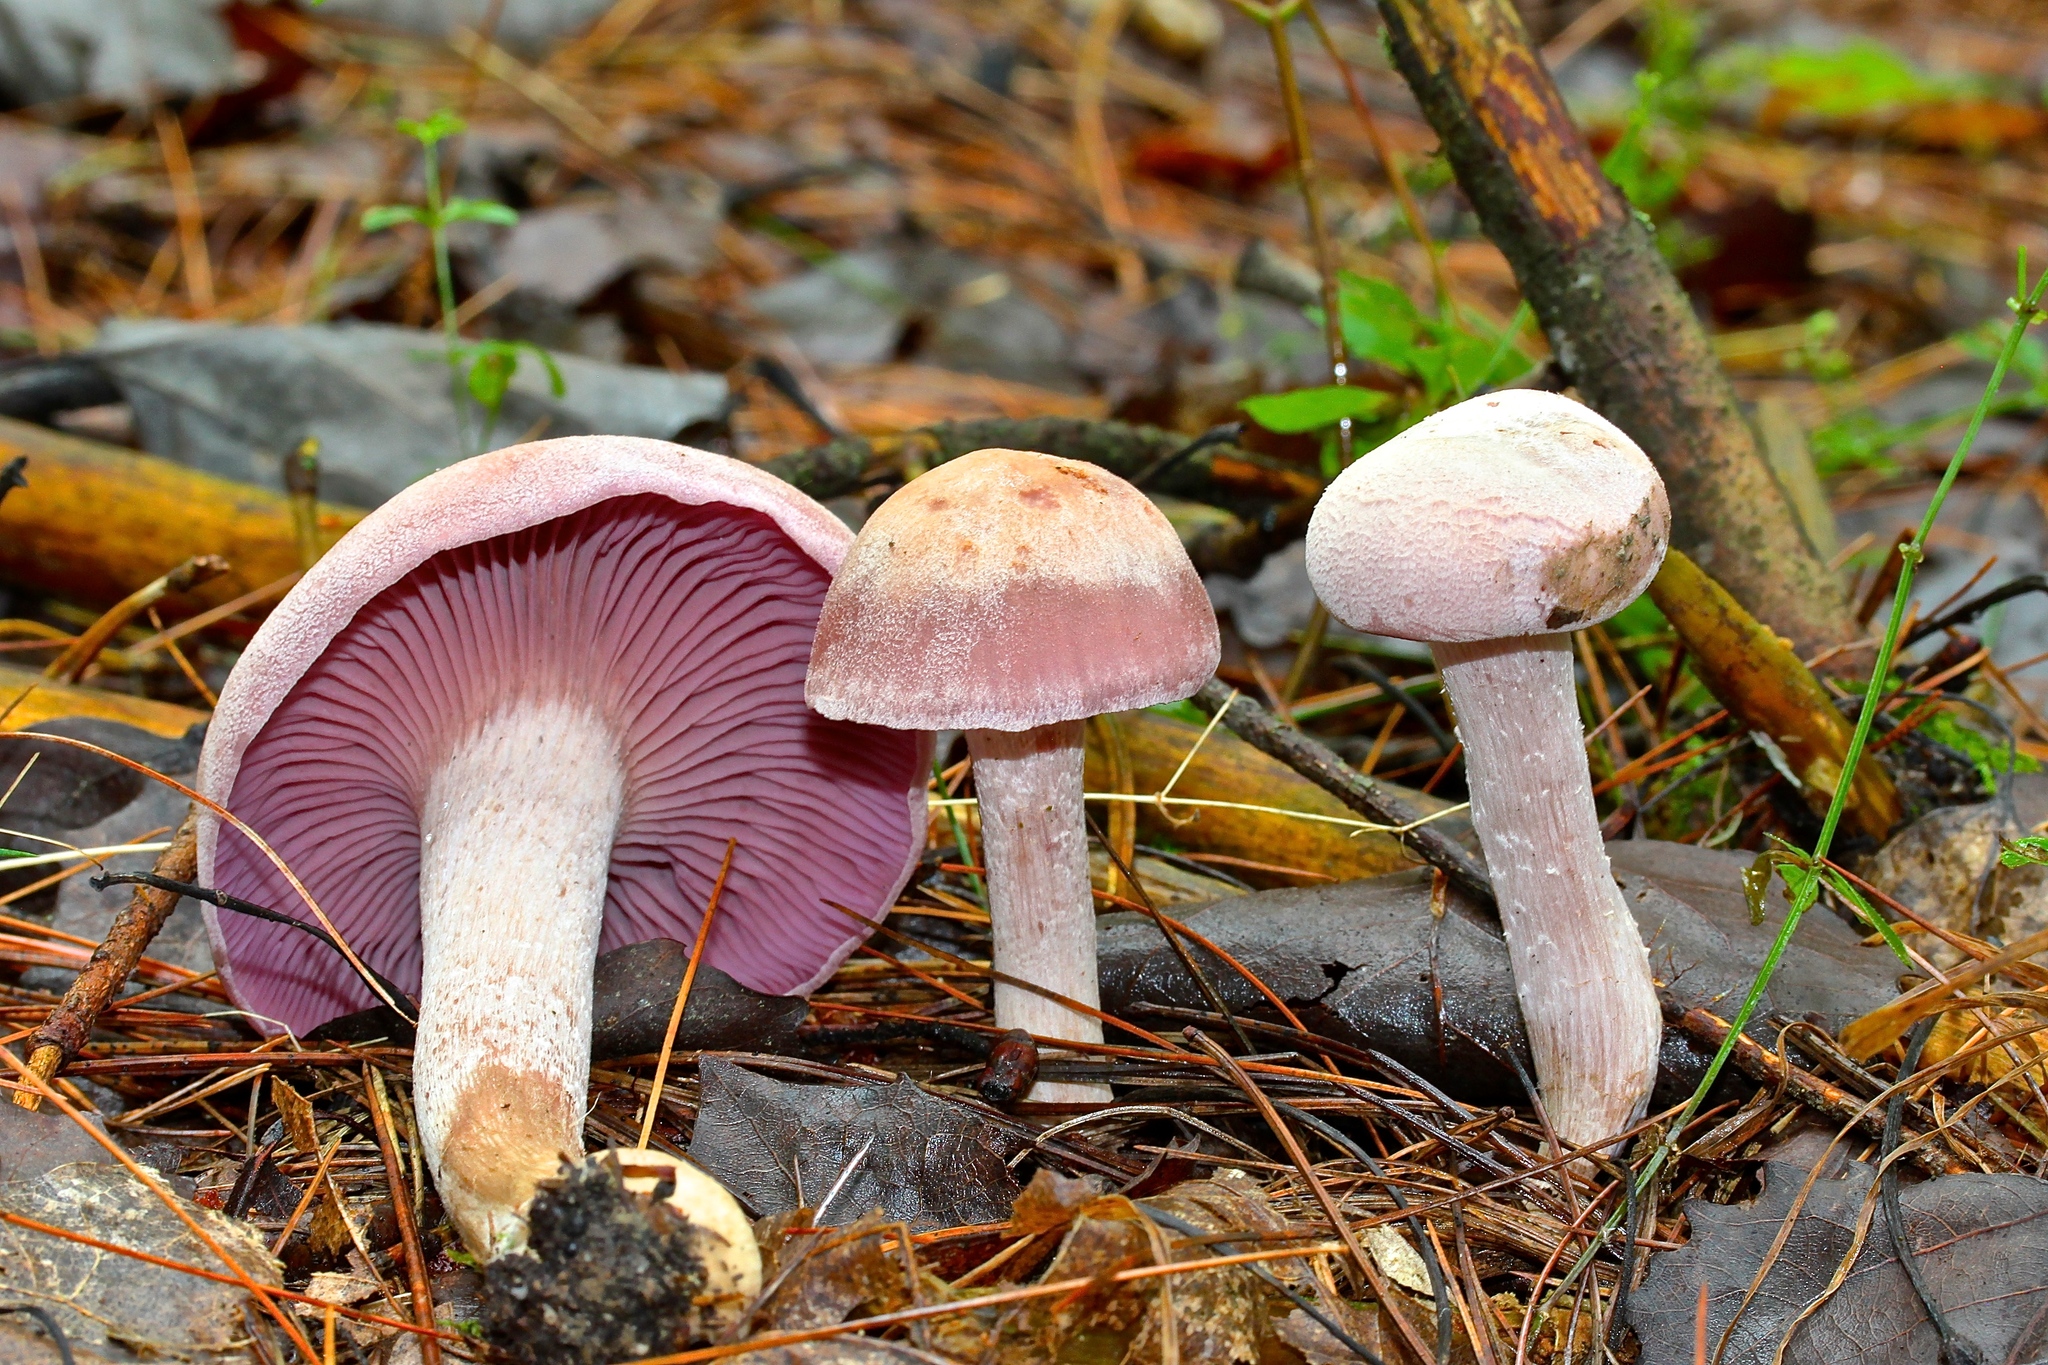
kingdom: Fungi
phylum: Basidiomycota
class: Agaricomycetes
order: Agaricales
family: Hydnangiaceae
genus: Laccaria
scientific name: Laccaria ochropurpurea
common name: Purple laccaria
